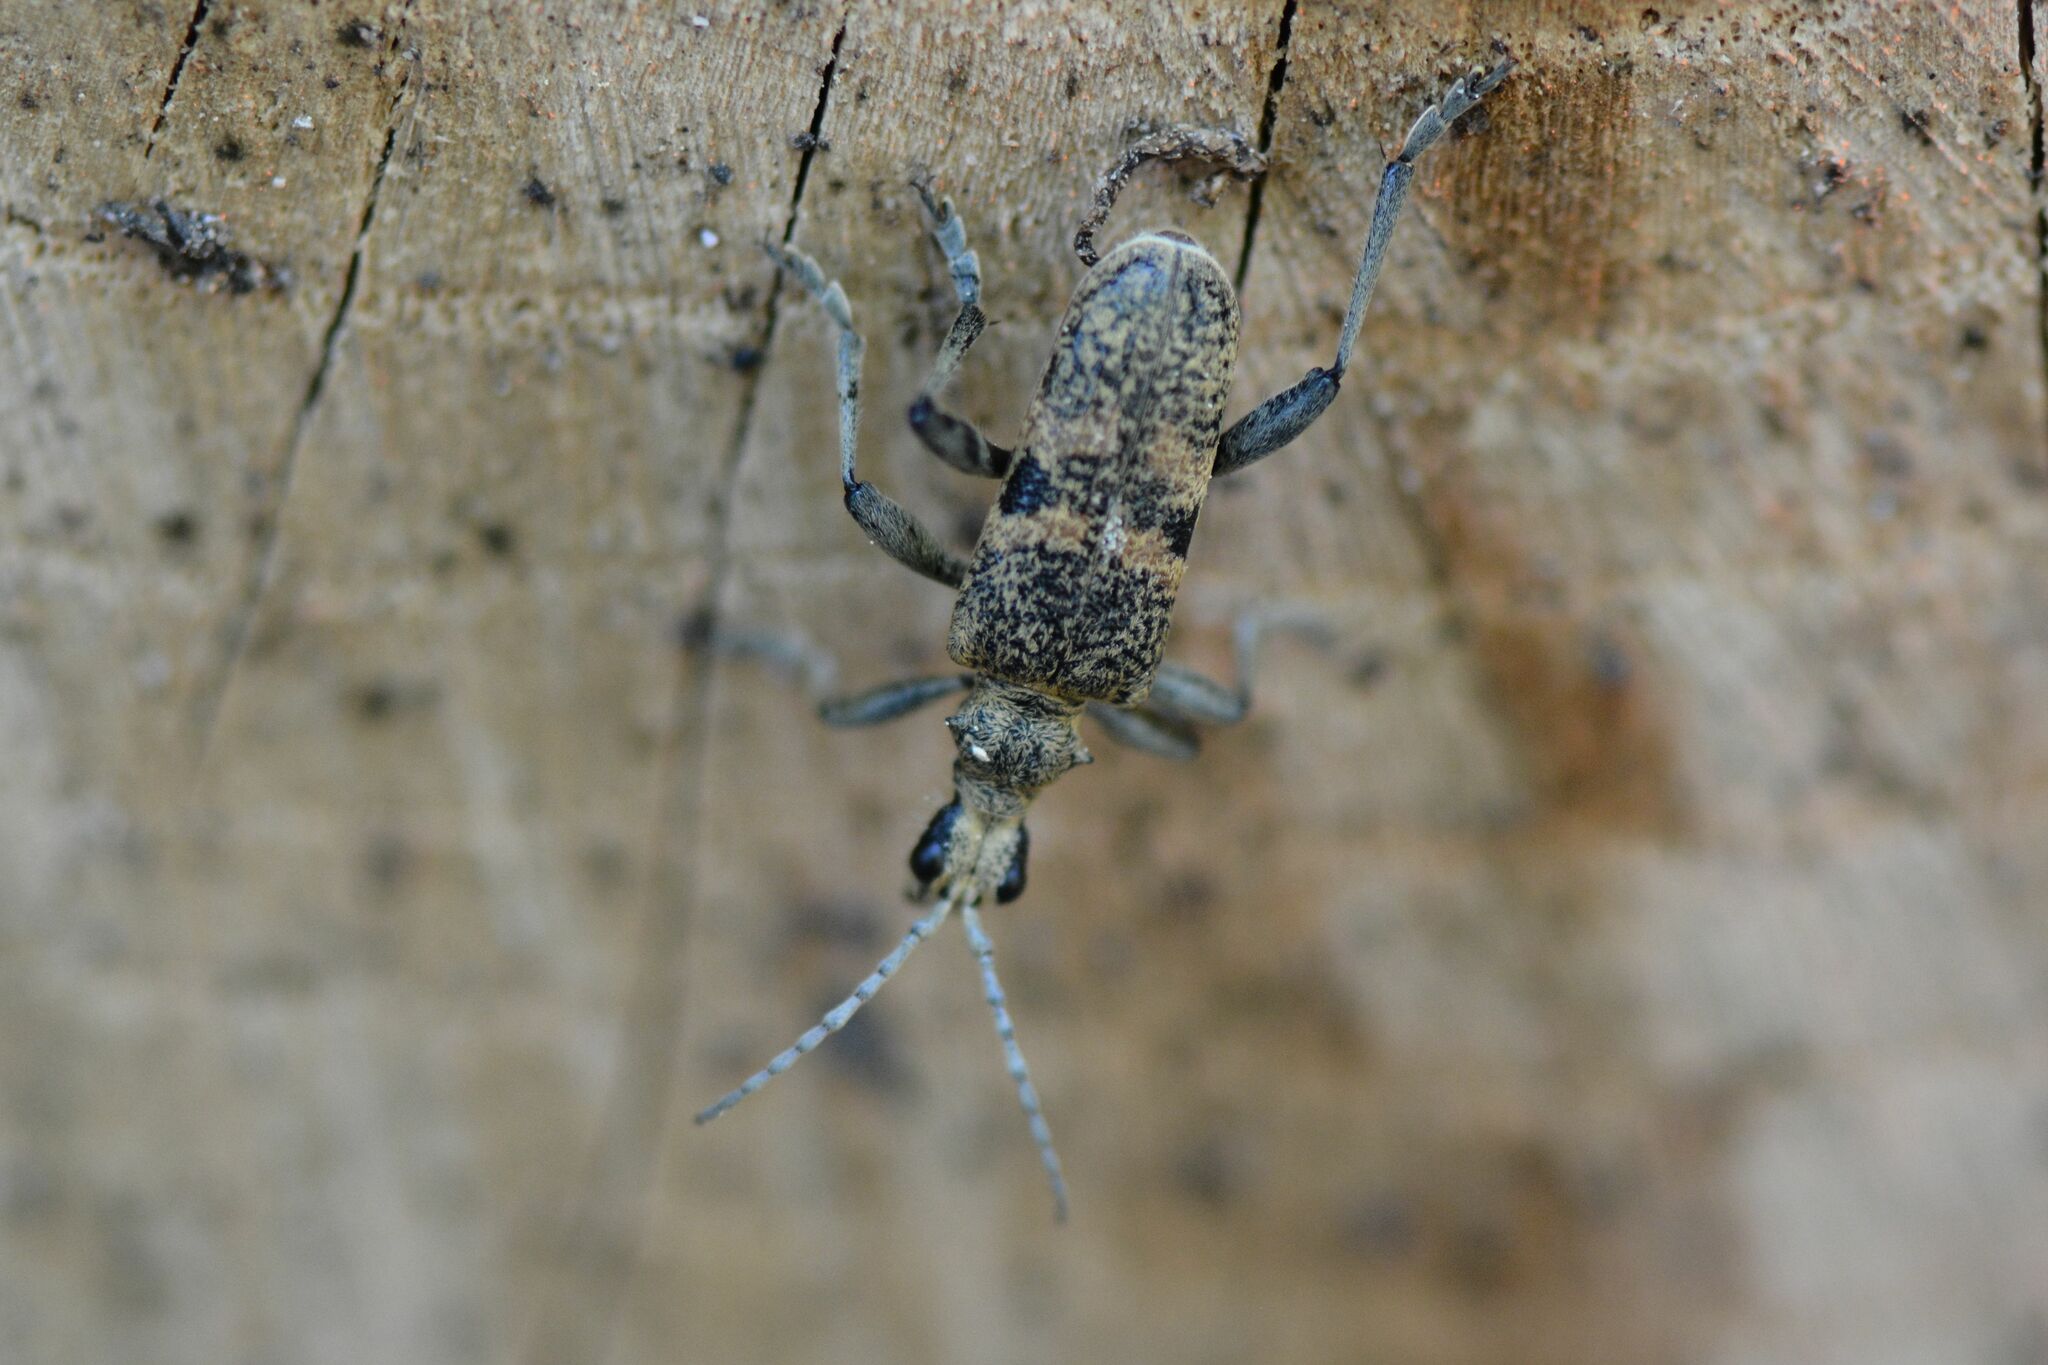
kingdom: Animalia
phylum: Arthropoda
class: Insecta
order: Coleoptera
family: Cerambycidae
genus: Rhagium
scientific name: Rhagium mordax
